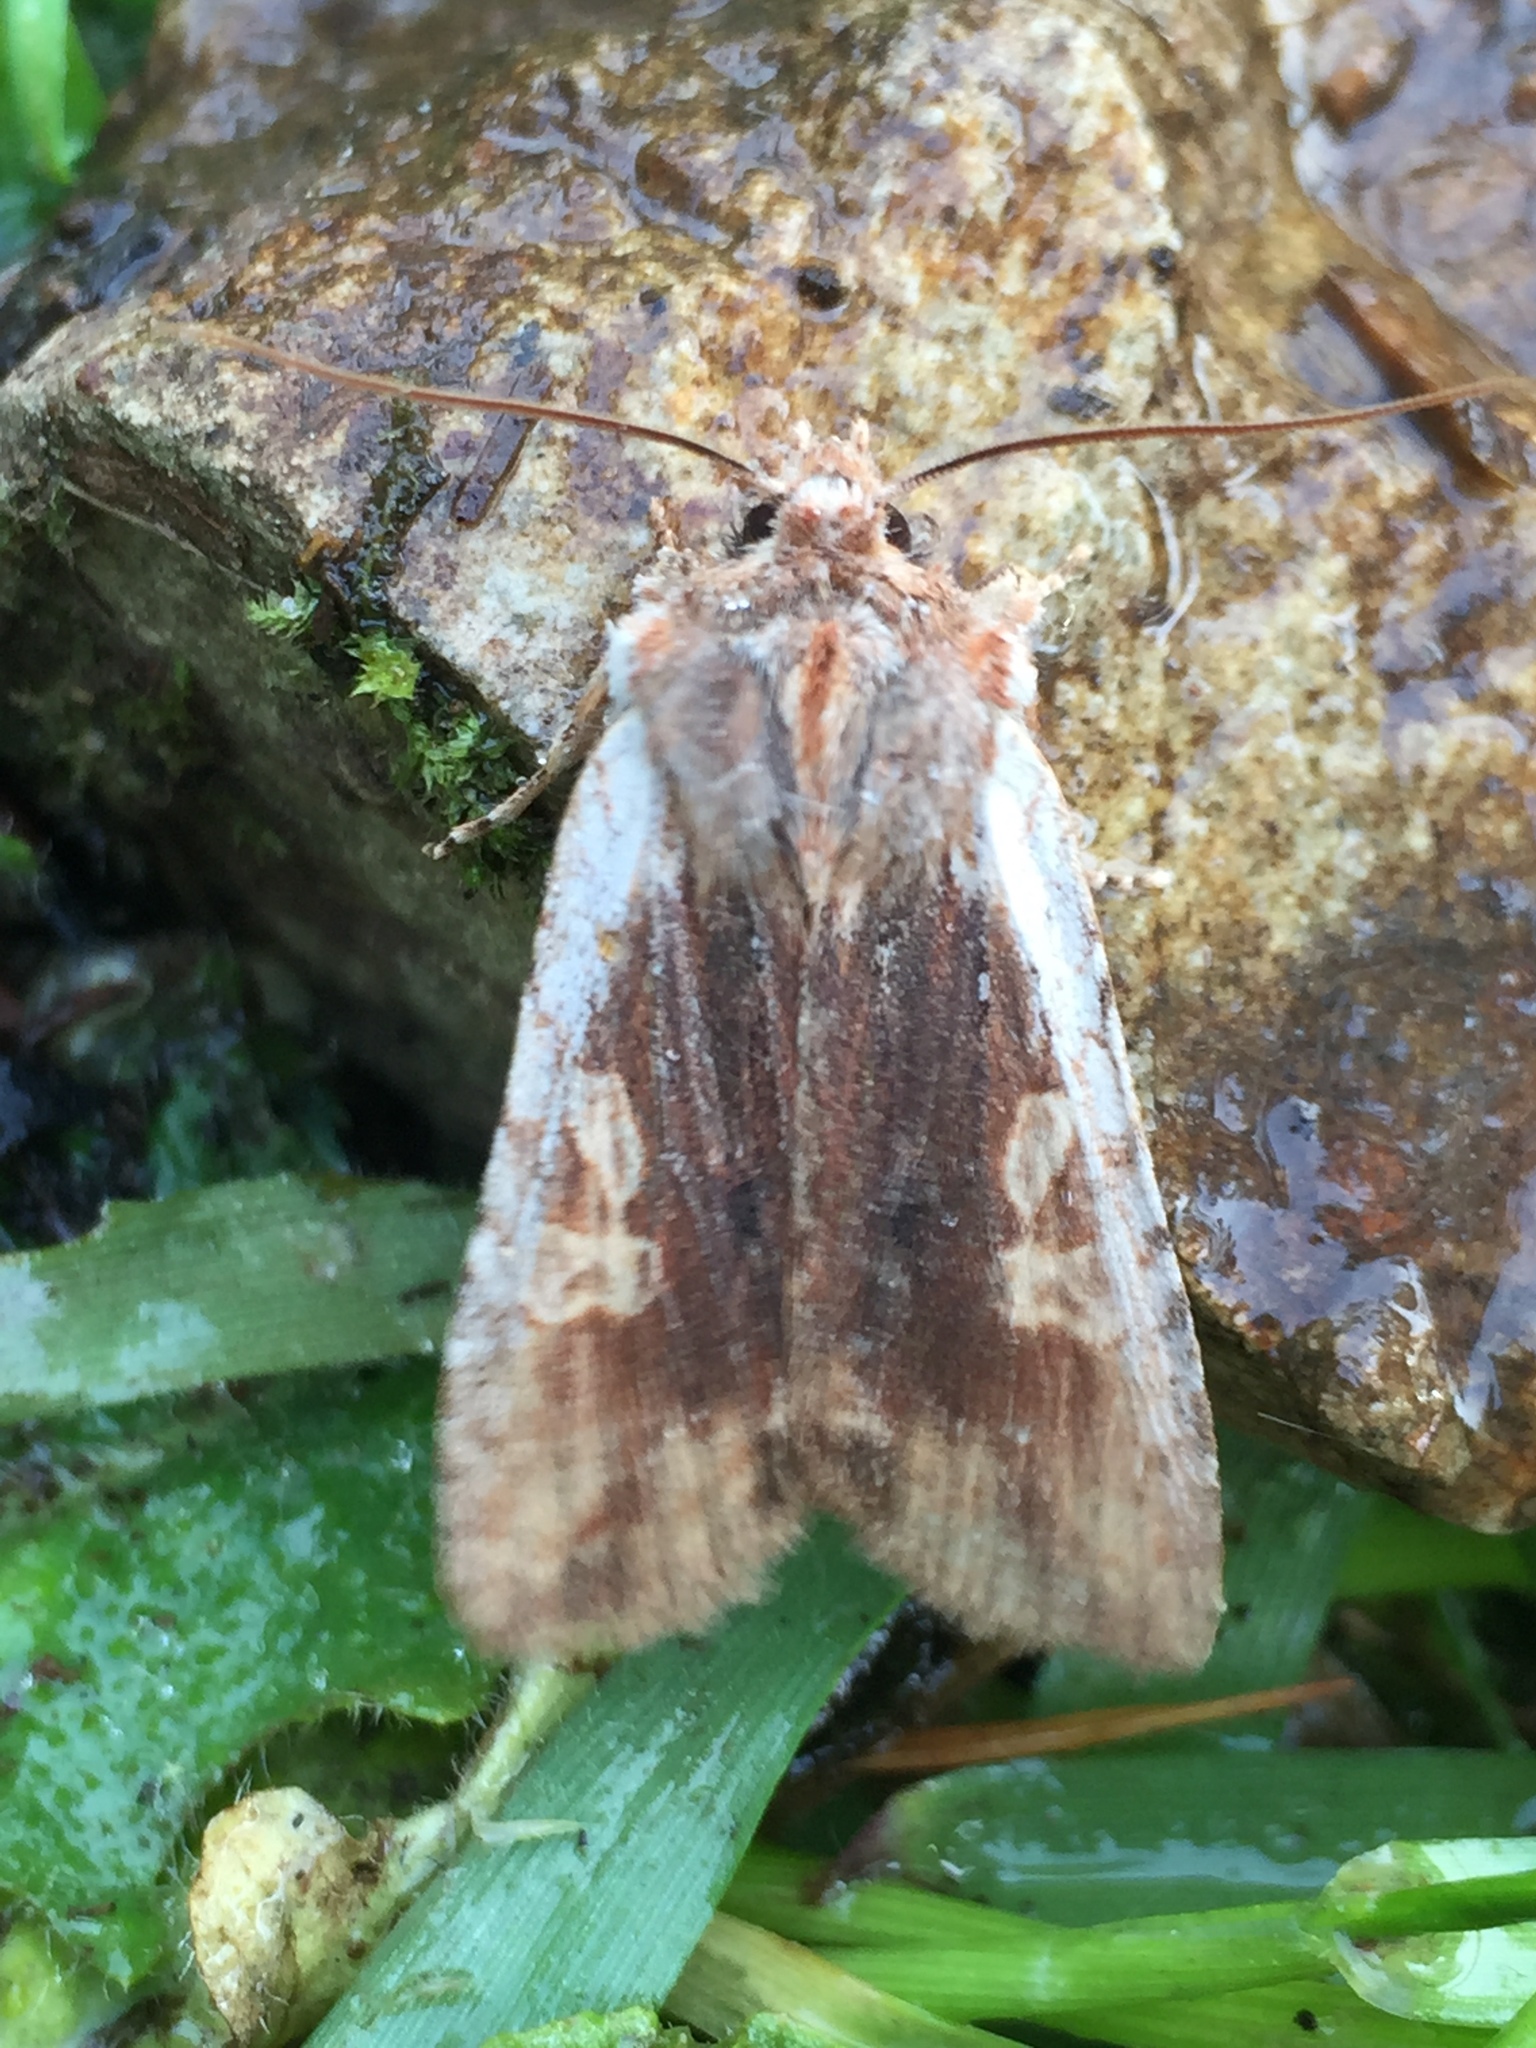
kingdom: Animalia
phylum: Arthropoda
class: Insecta
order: Lepidoptera
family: Noctuidae
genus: Lithophane
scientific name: Lithophane petulca
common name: Wanton pinion
